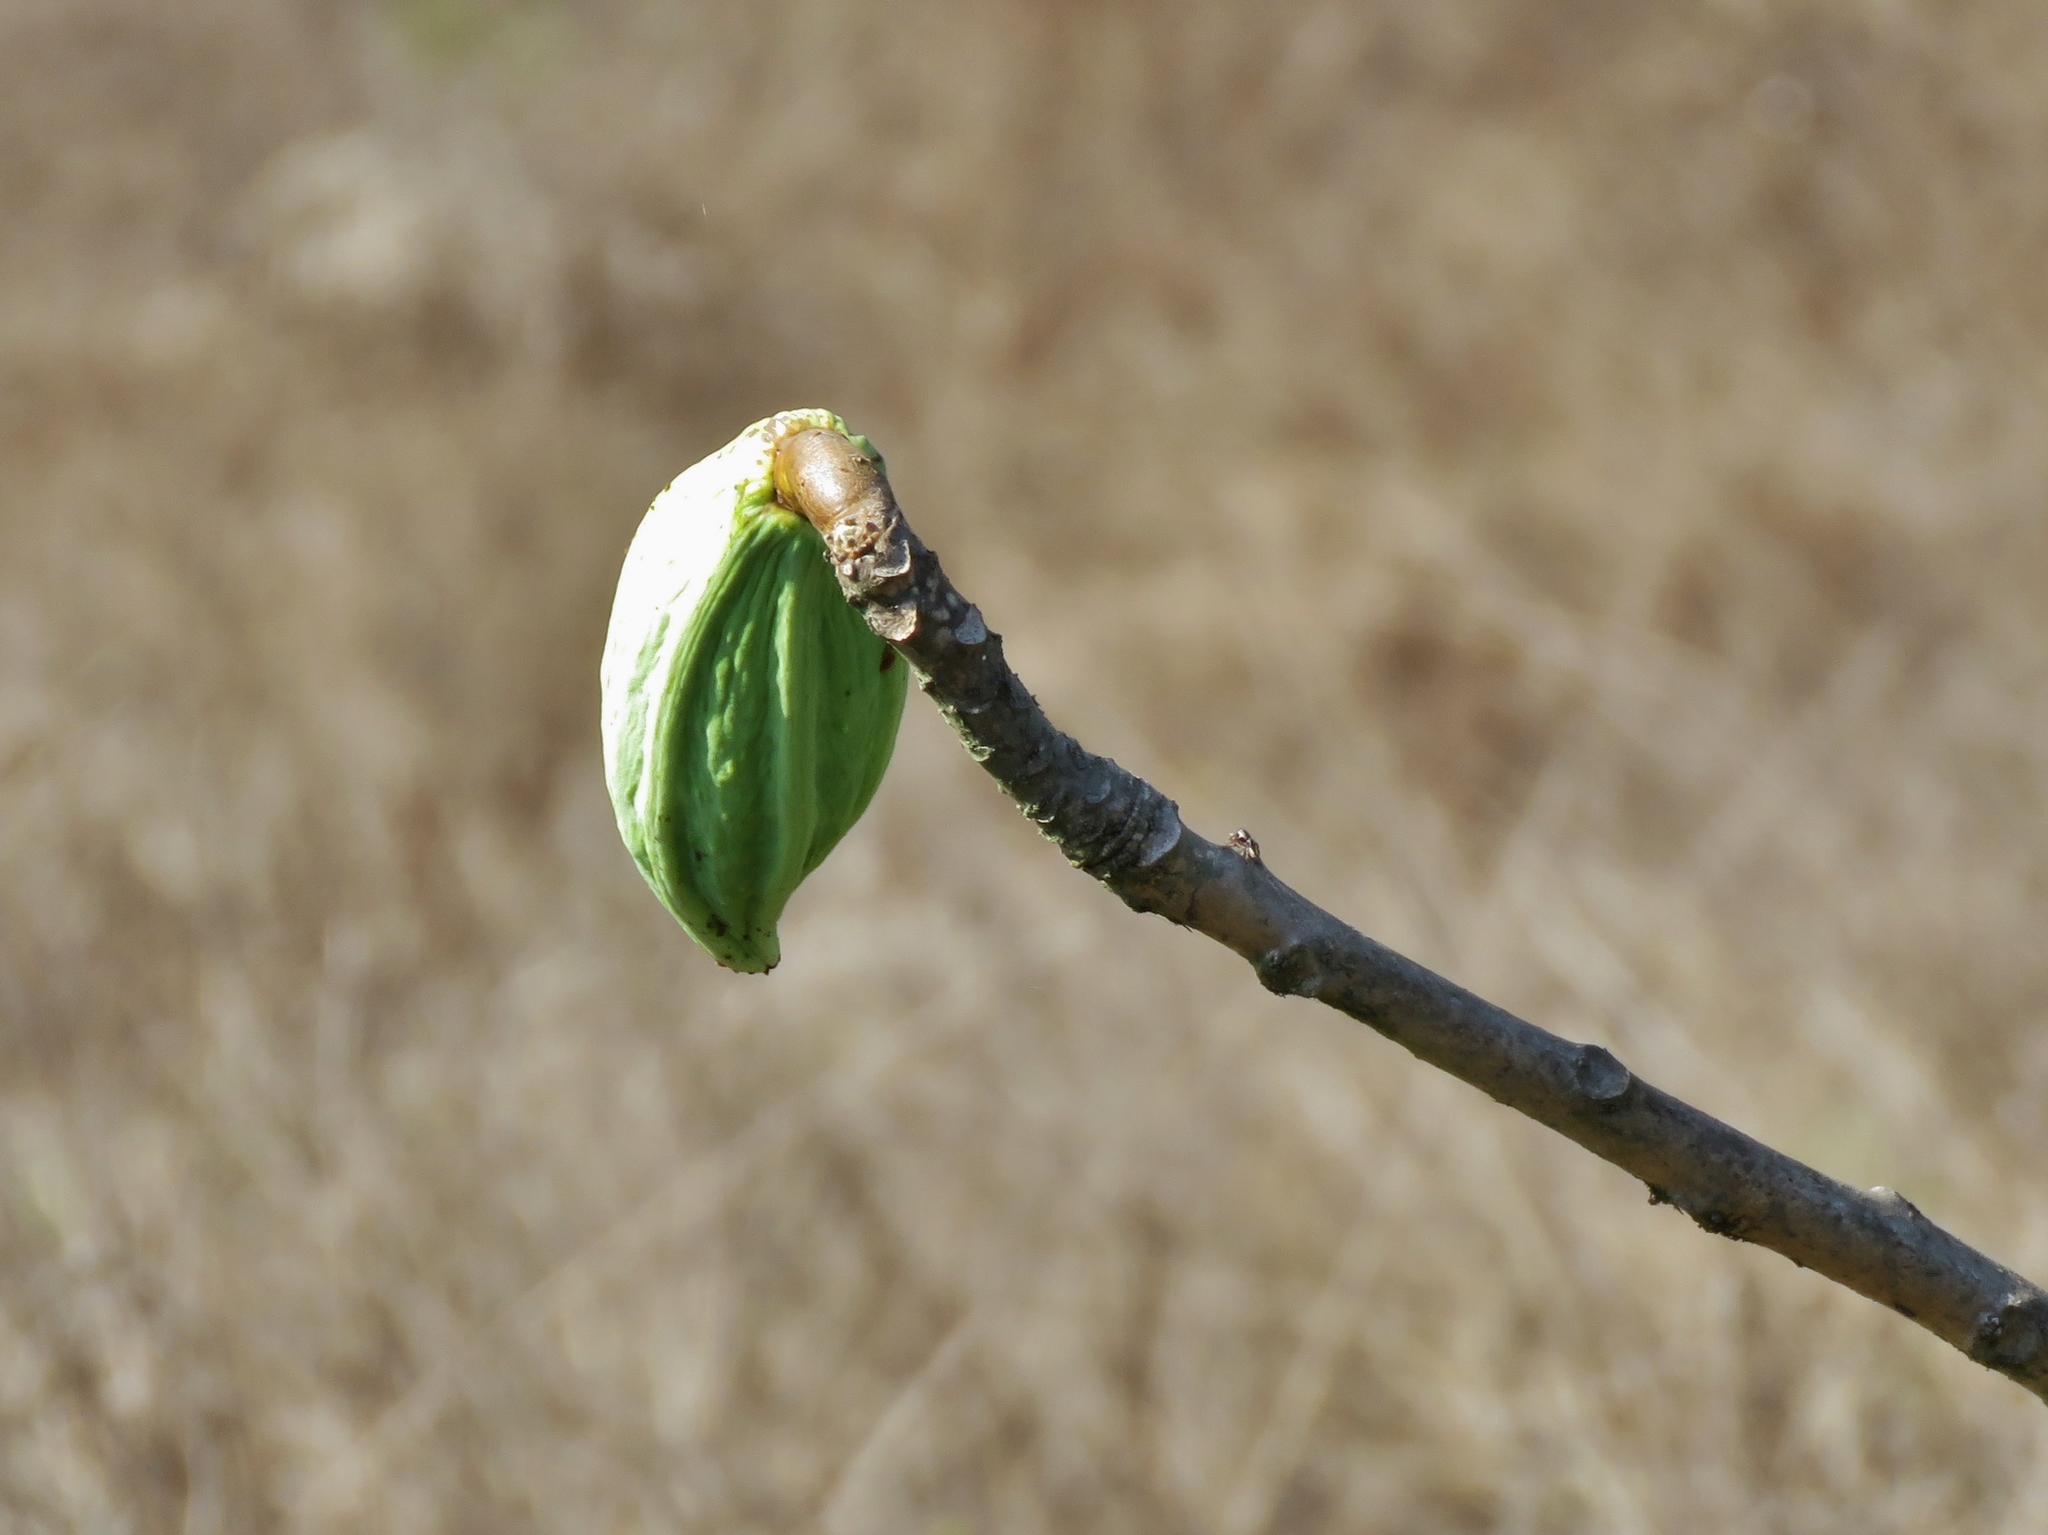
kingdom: Plantae
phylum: Tracheophyta
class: Magnoliopsida
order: Brassicales
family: Caricaceae
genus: Vasconcellea
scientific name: Vasconcellea candicans
